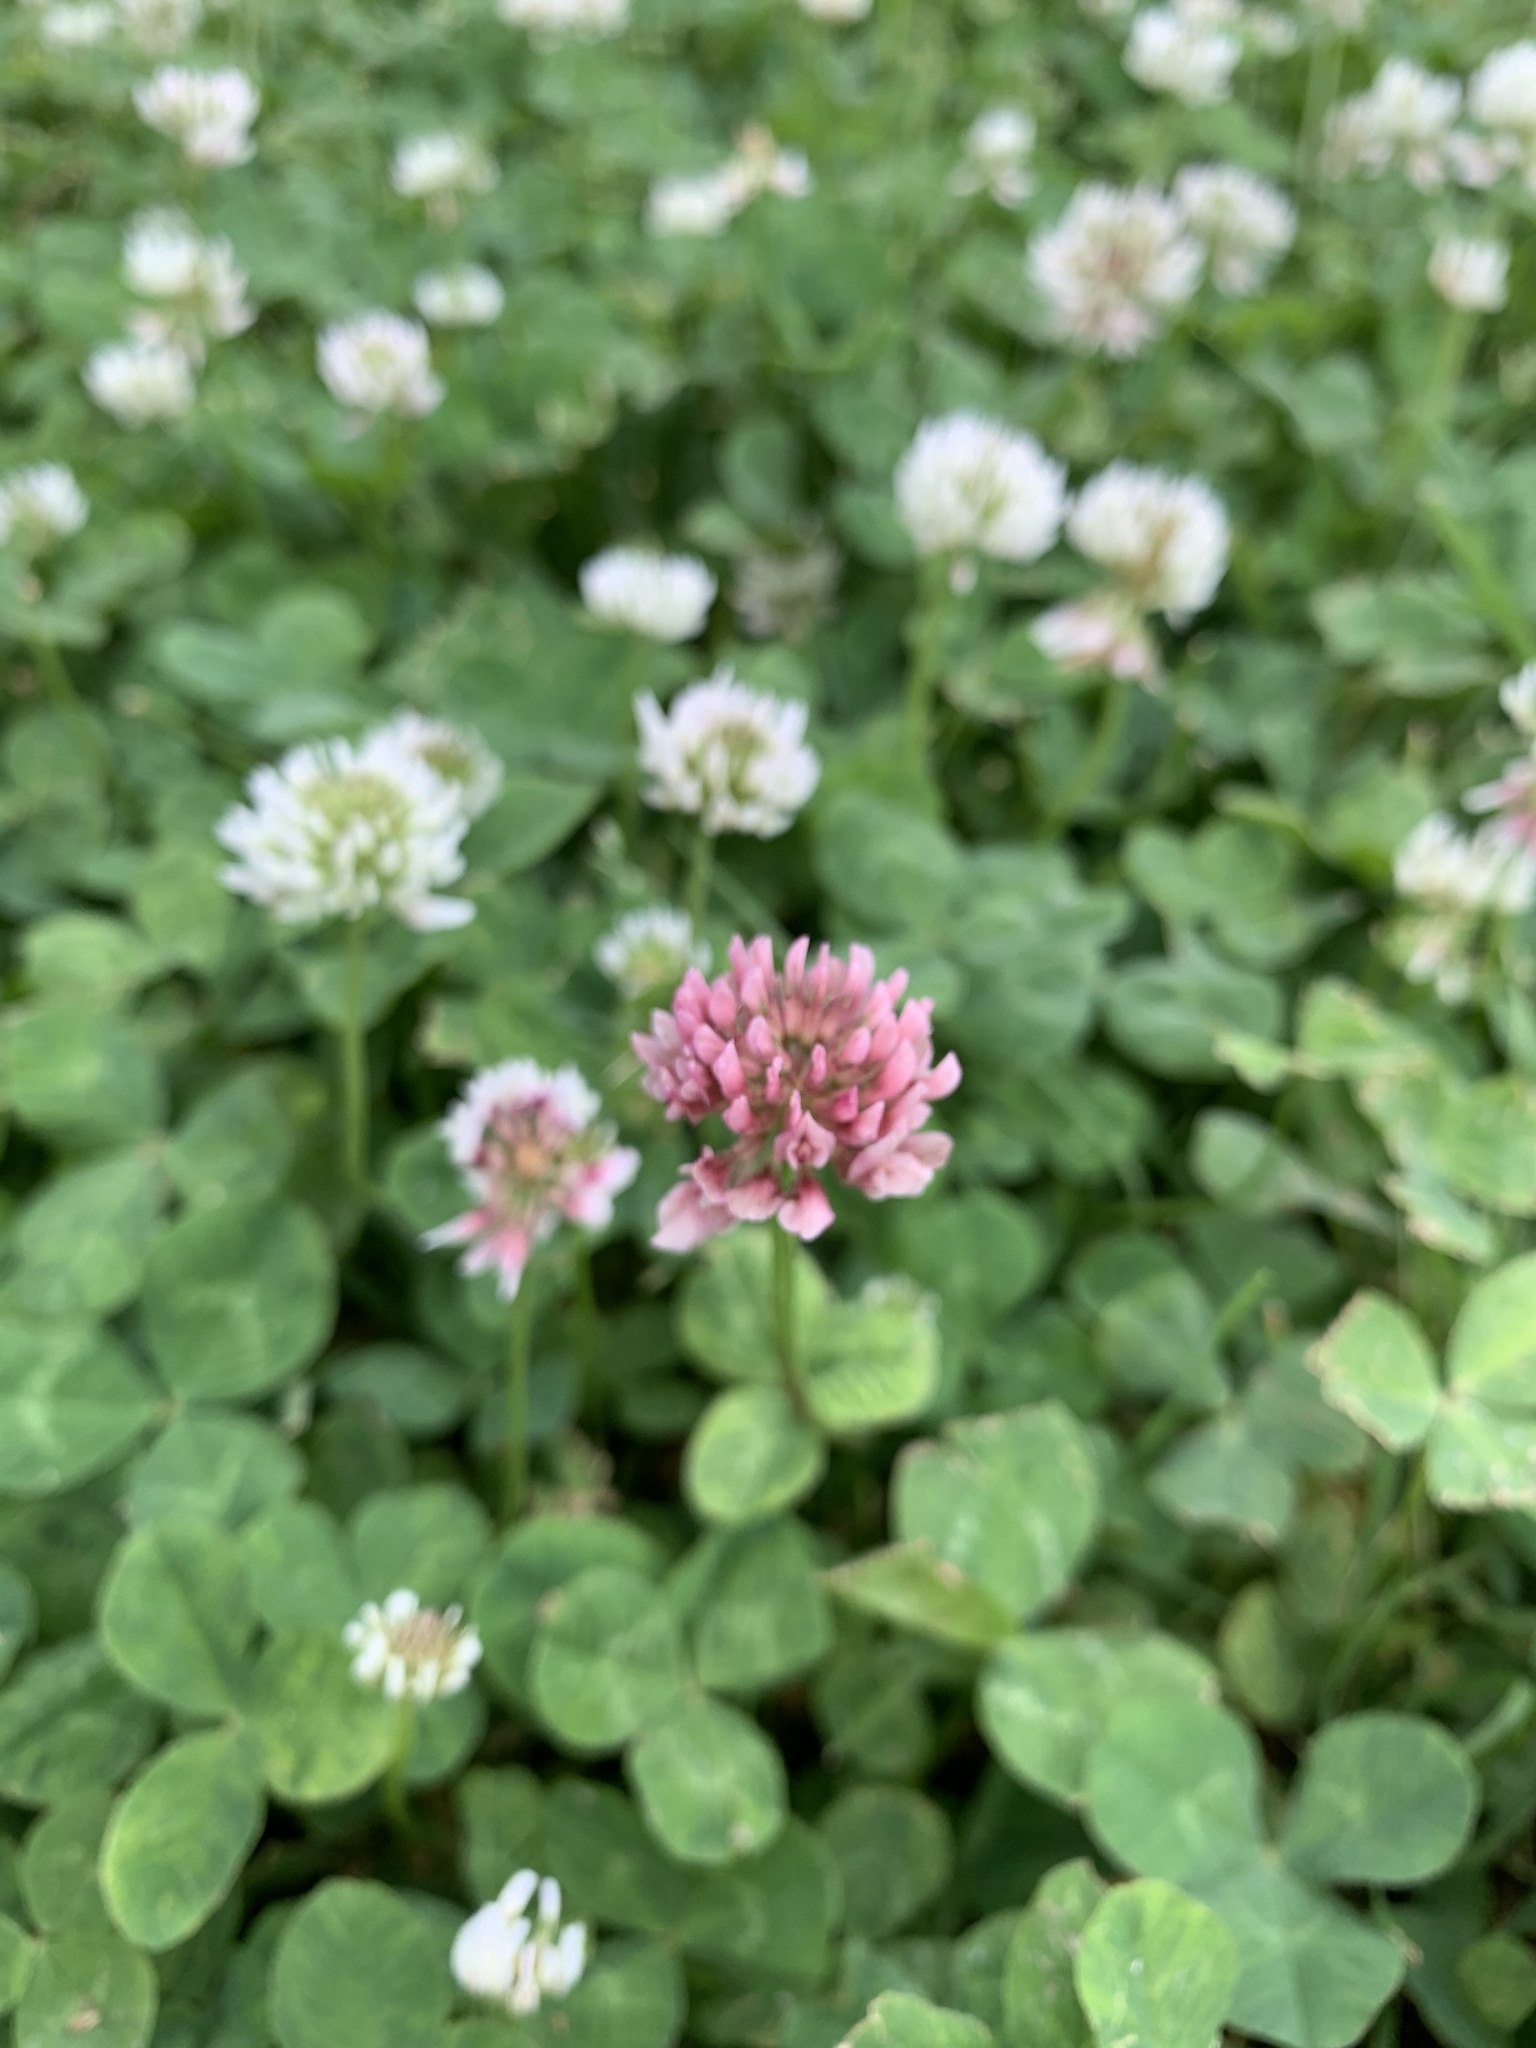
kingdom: Plantae
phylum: Tracheophyta
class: Magnoliopsida
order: Fabales
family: Fabaceae
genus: Trifolium
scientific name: Trifolium repens
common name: White clover
